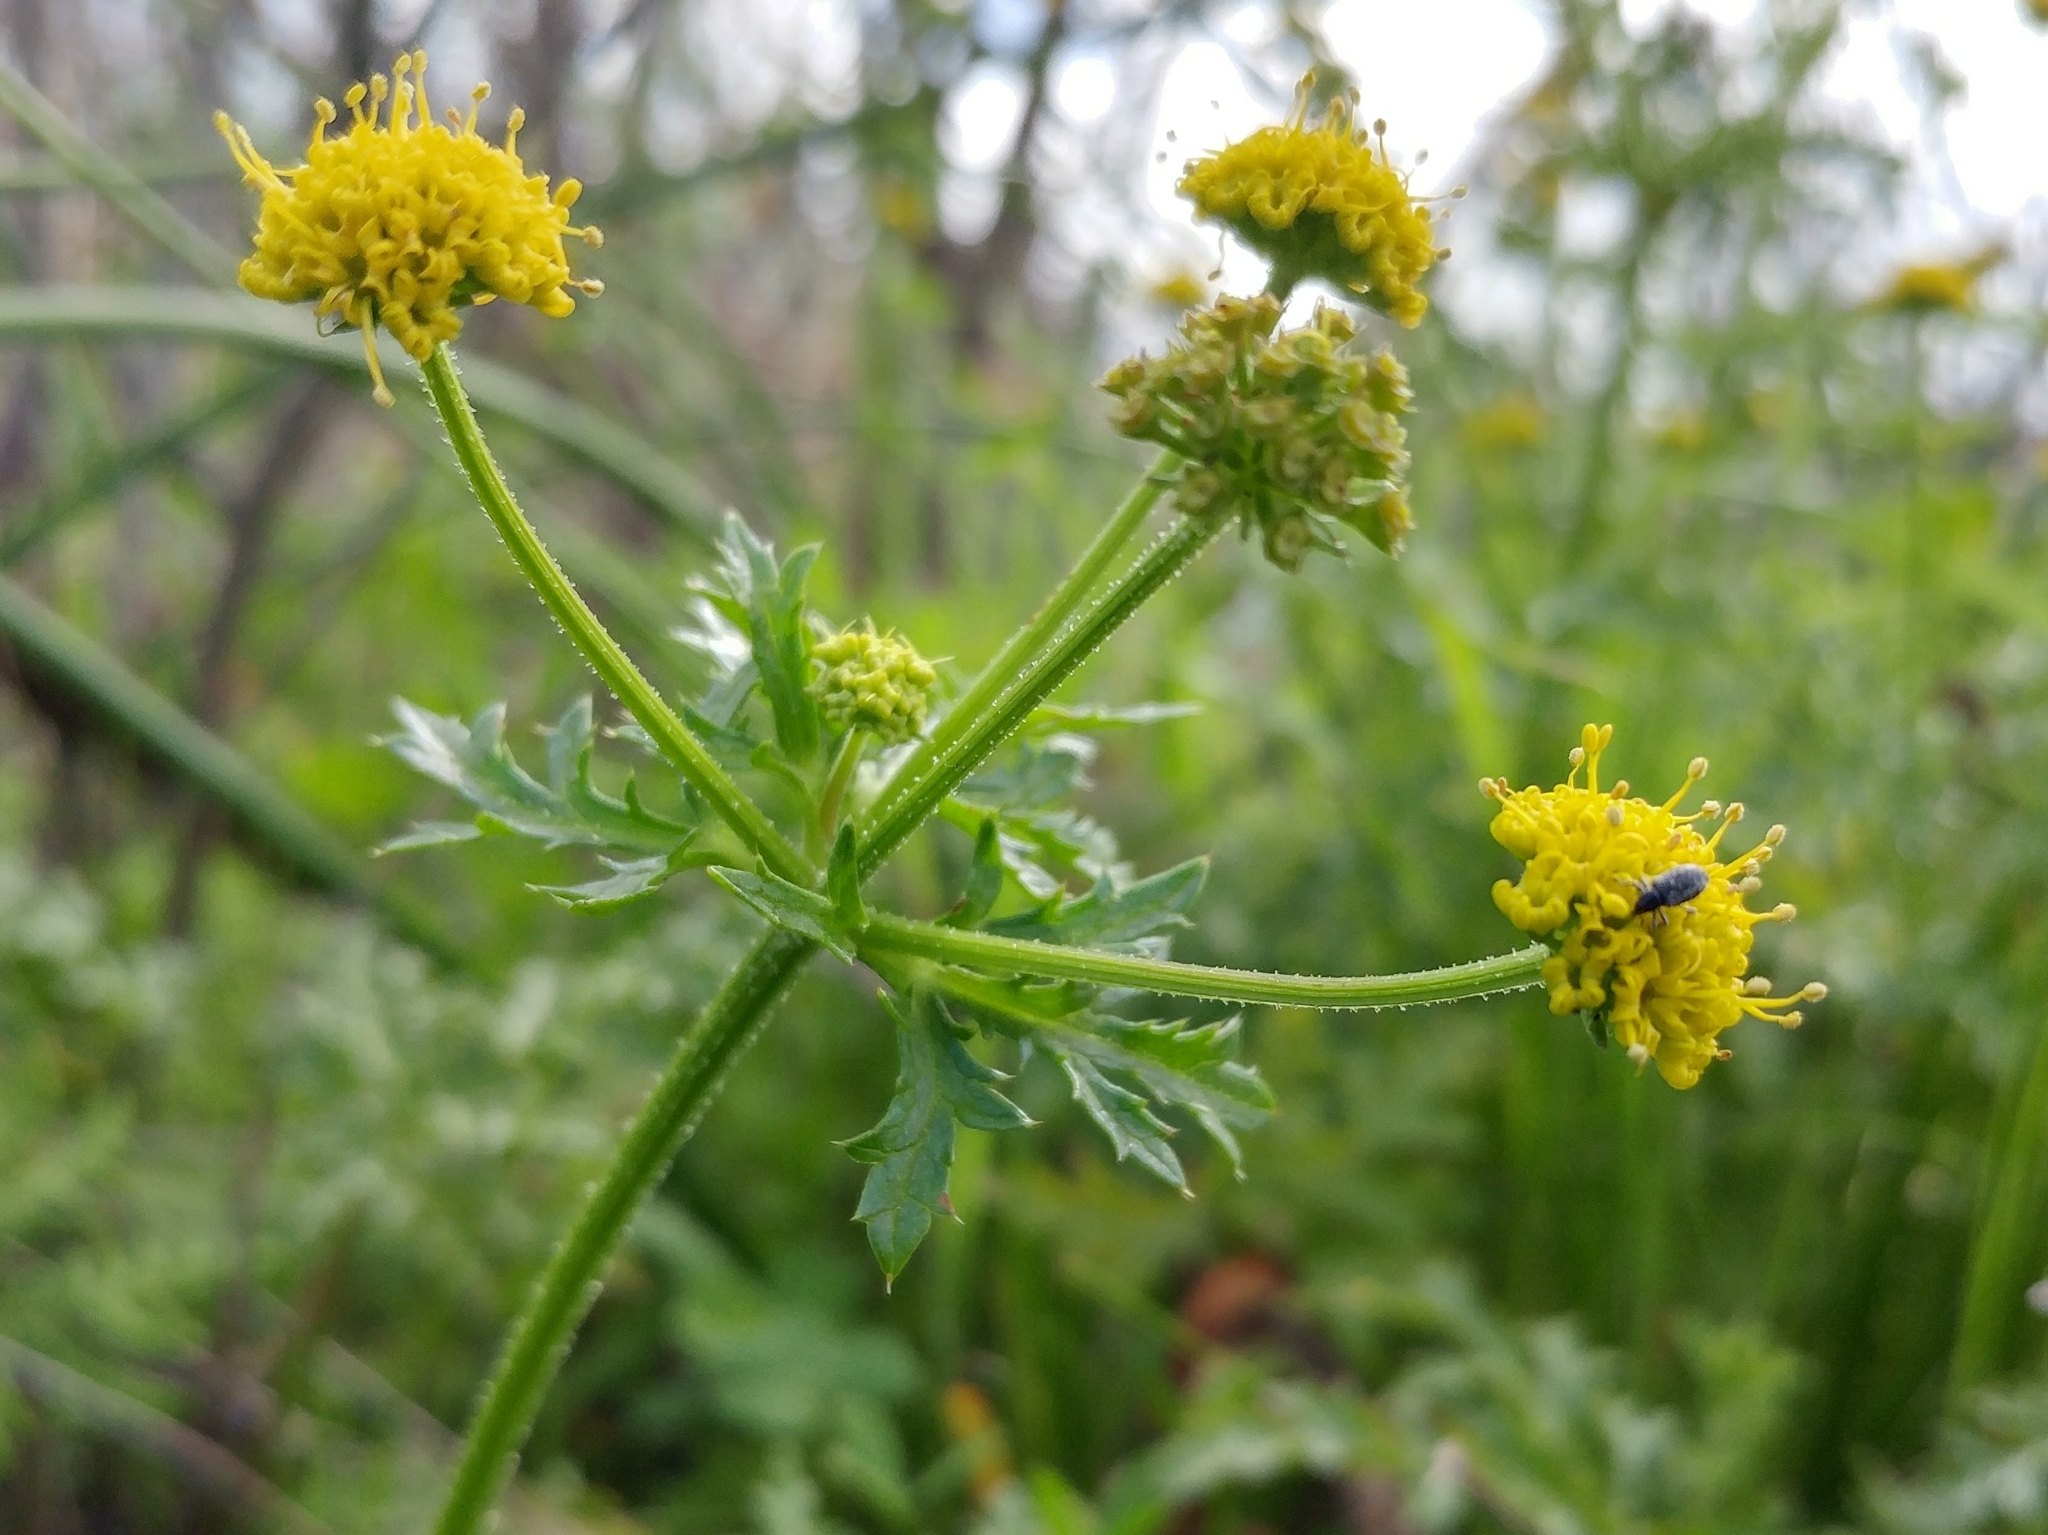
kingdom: Plantae
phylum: Tracheophyta
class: Magnoliopsida
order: Apiales
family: Apiaceae
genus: Sanicula
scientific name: Sanicula arguta
